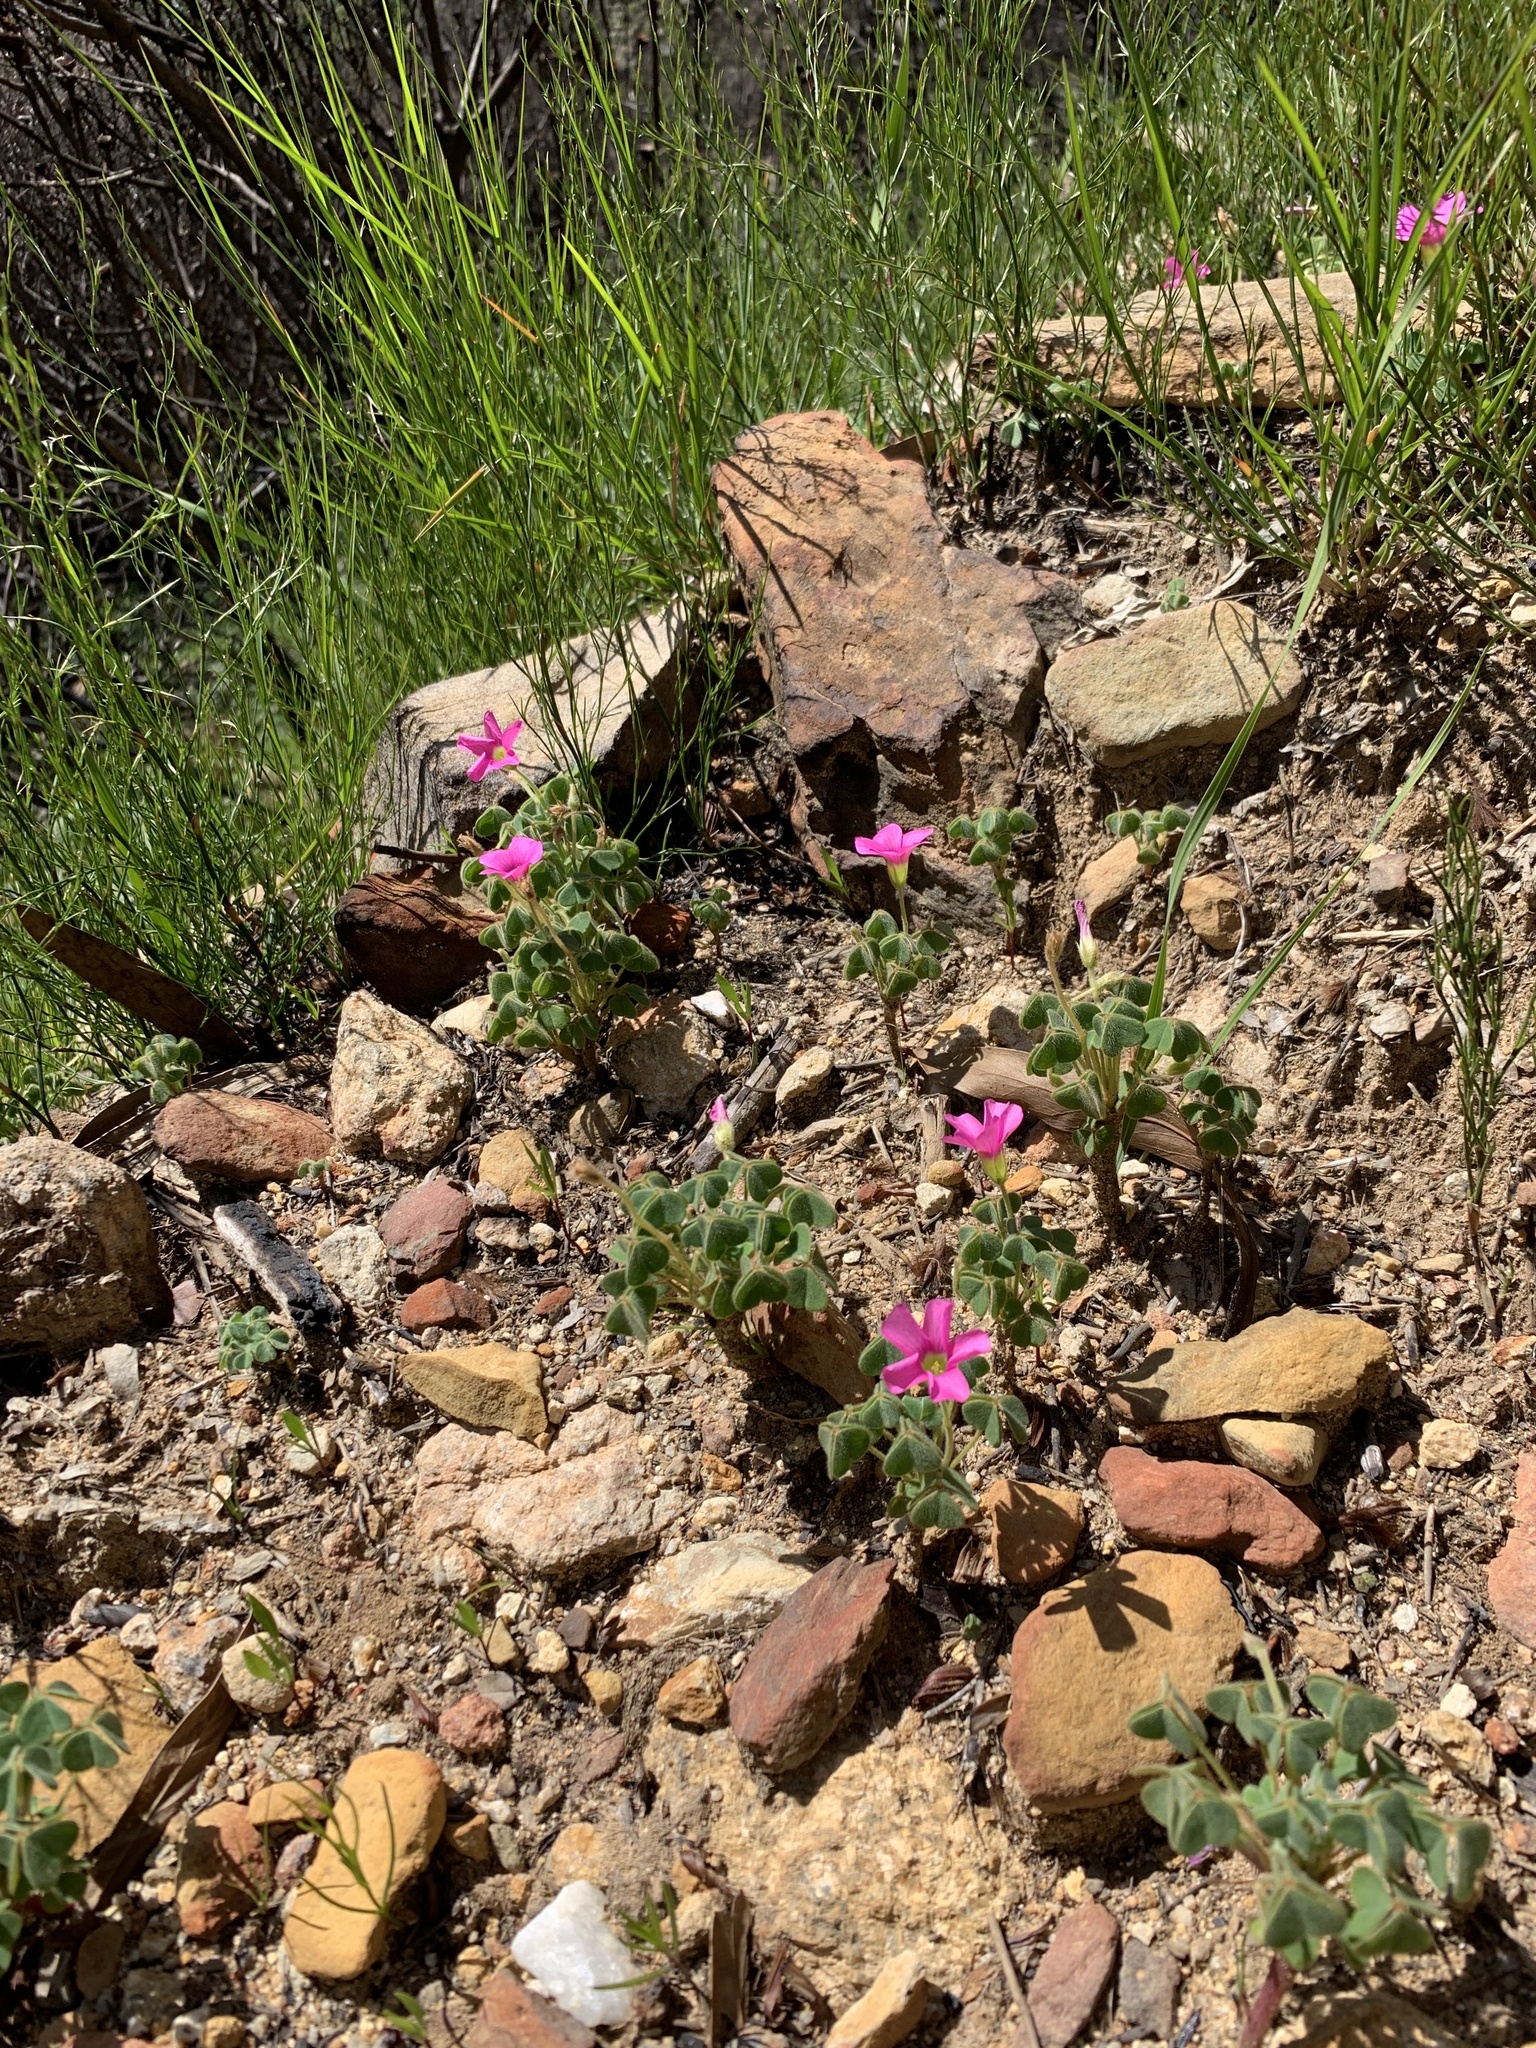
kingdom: Plantae
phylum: Tracheophyta
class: Magnoliopsida
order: Oxalidales
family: Oxalidaceae
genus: Oxalis
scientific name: Oxalis lanata
